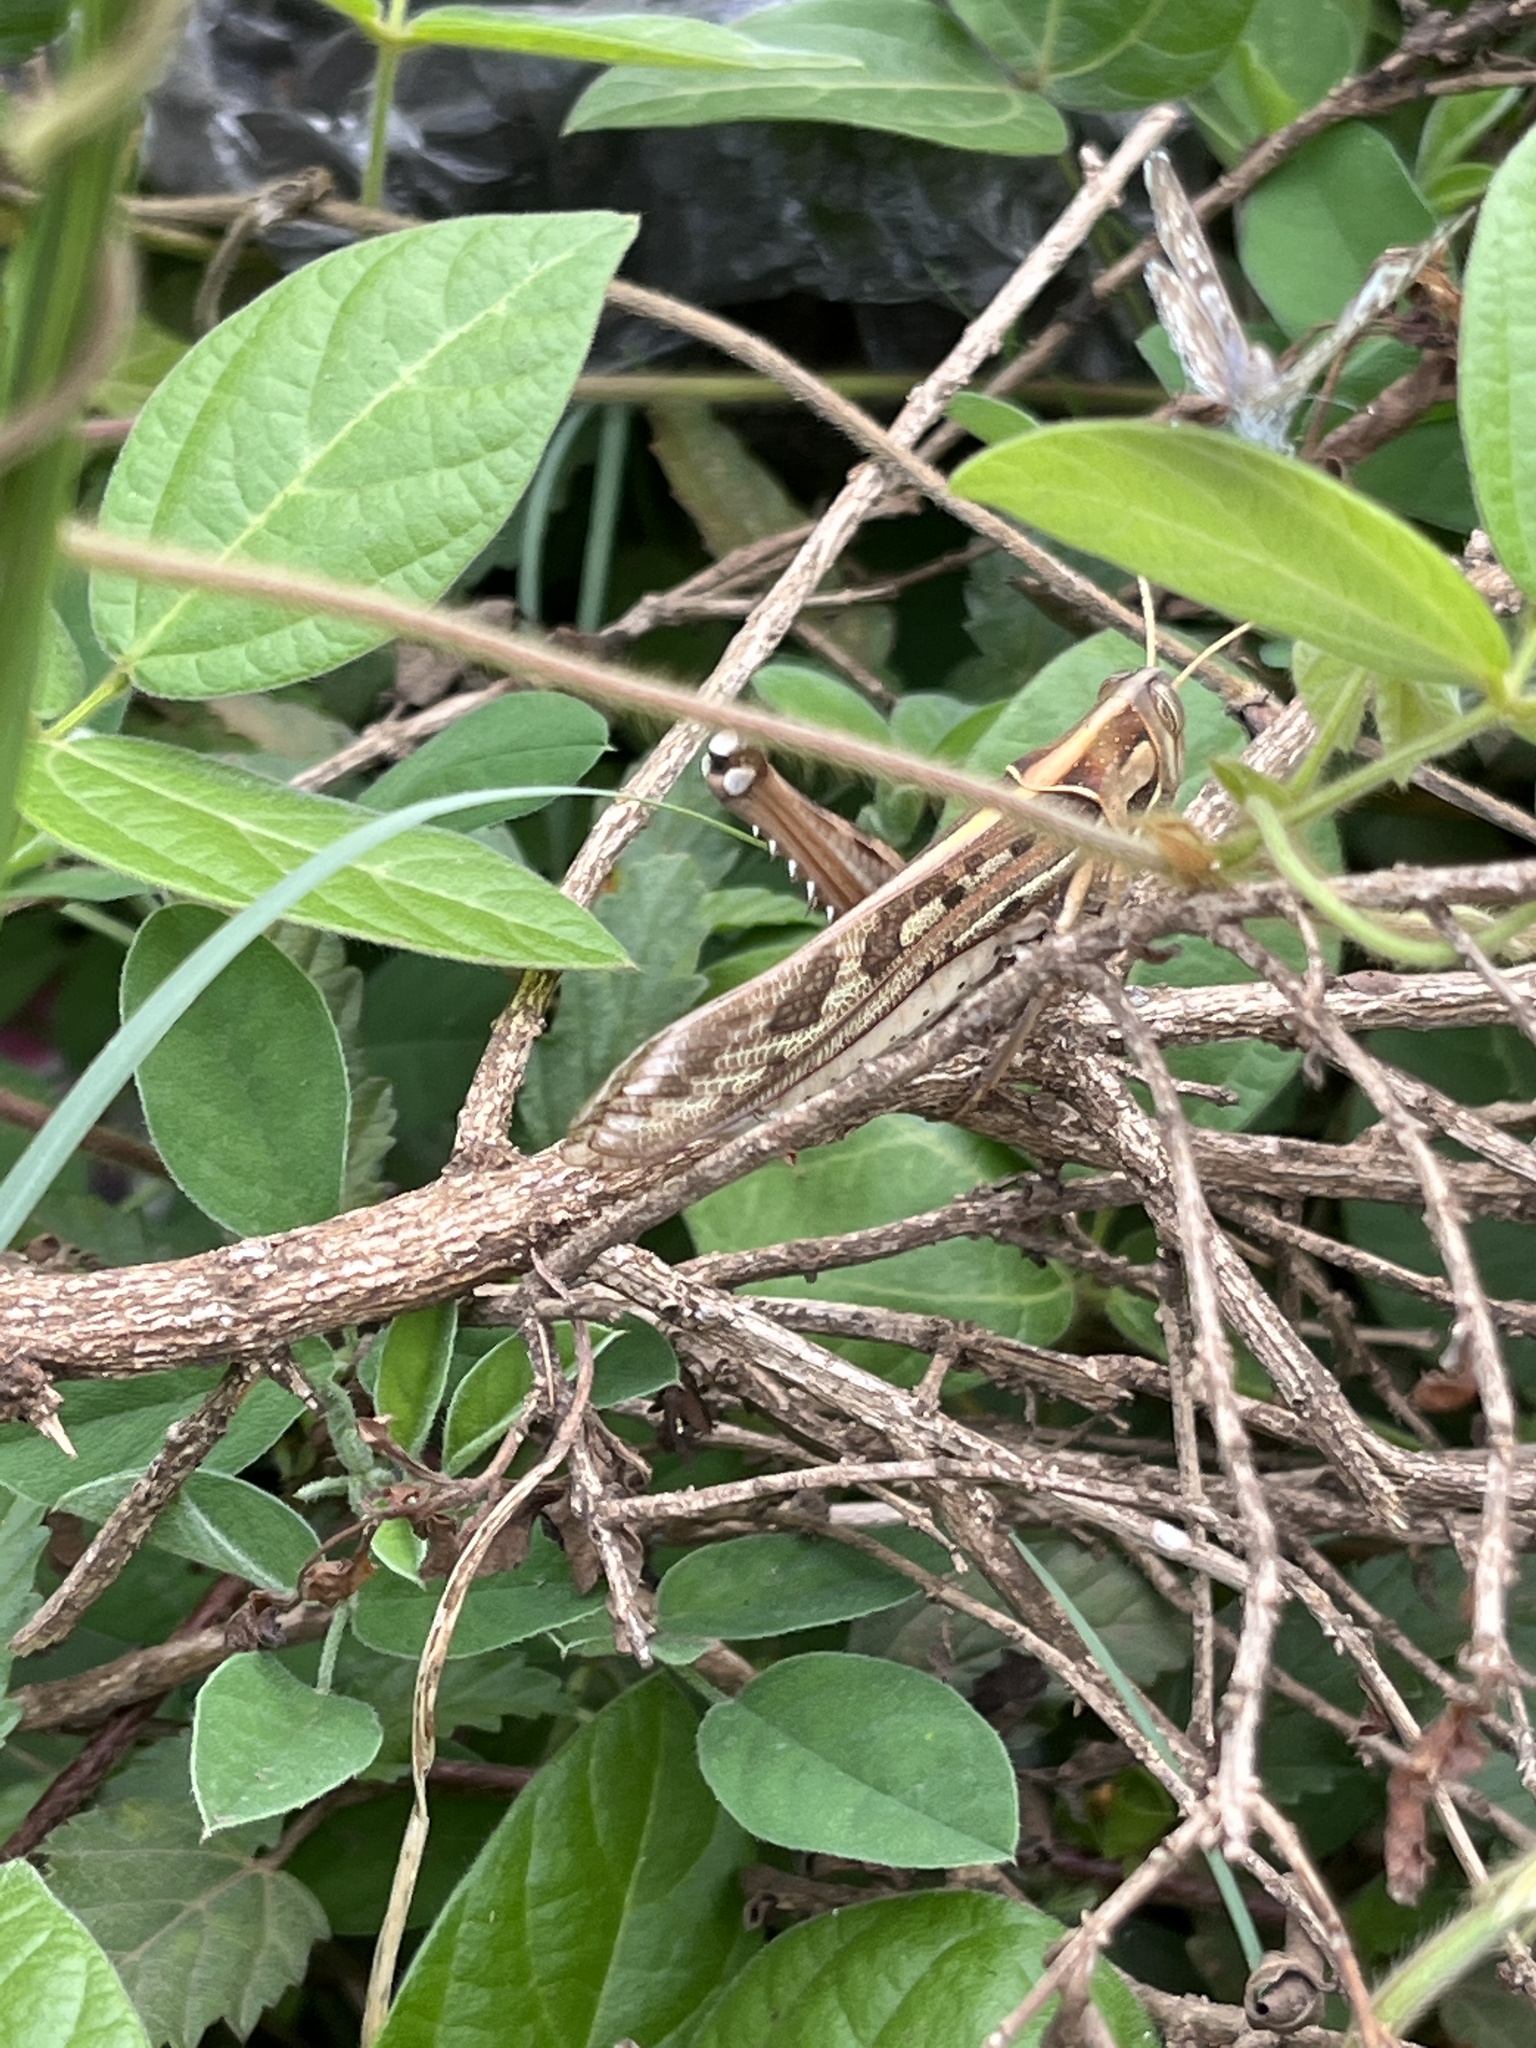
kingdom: Animalia
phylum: Arthropoda
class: Insecta
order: Orthoptera
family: Acrididae
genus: Cyrtacanthacris
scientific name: Cyrtacanthacris tatarica
